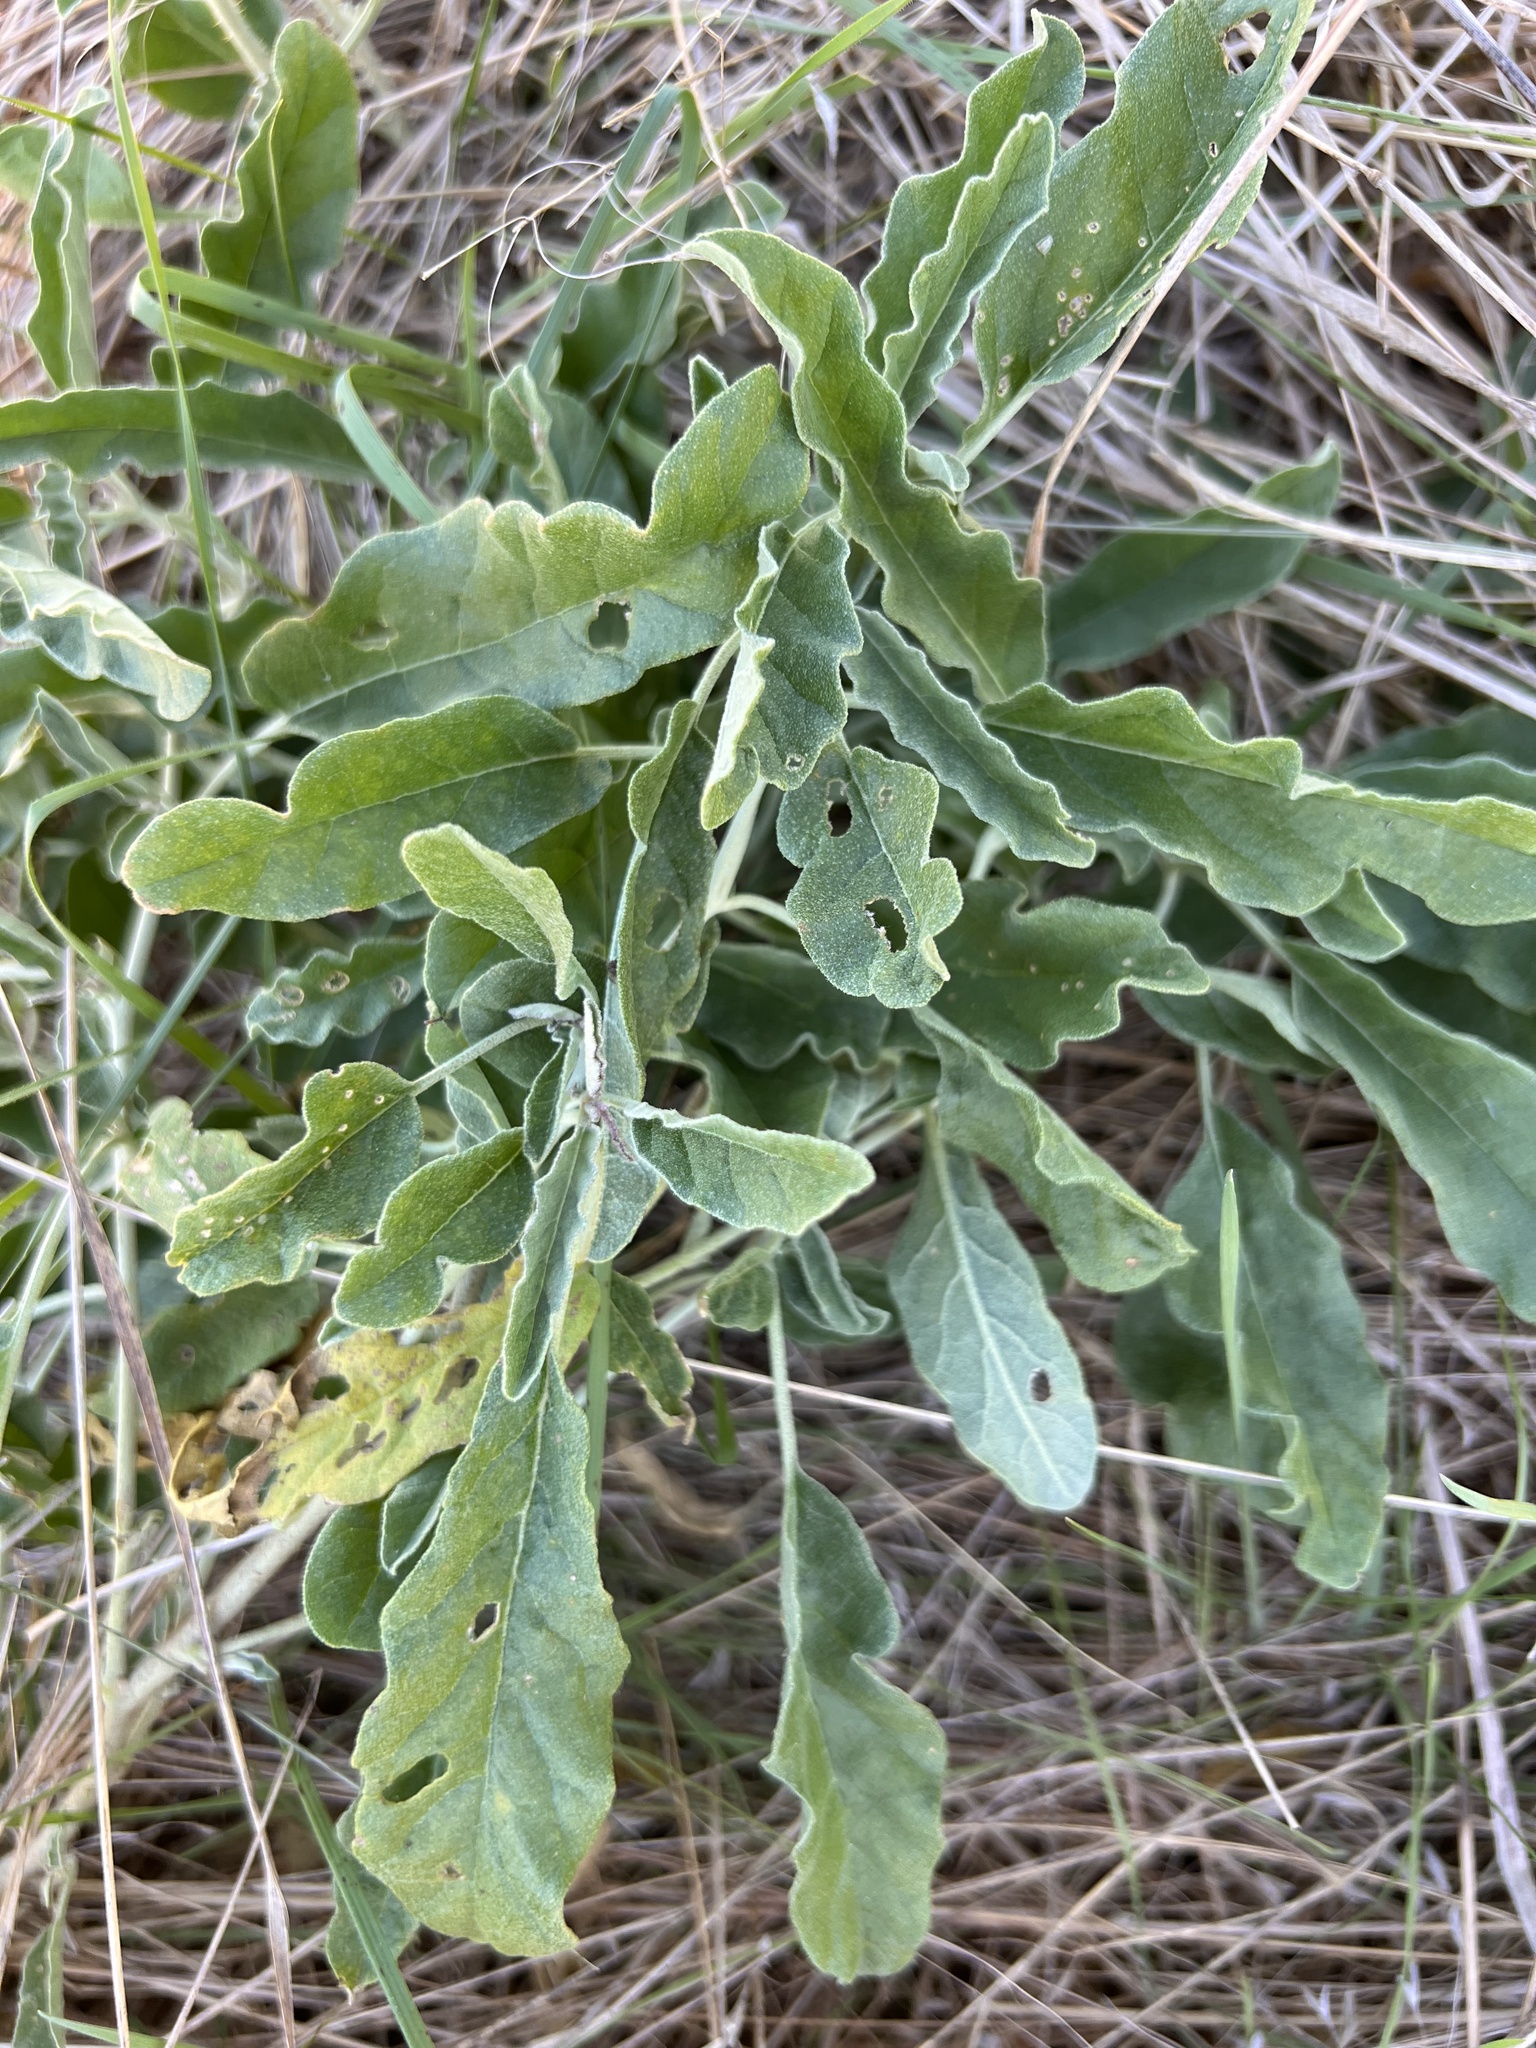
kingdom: Plantae
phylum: Tracheophyta
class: Magnoliopsida
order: Solanales
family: Solanaceae
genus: Solanum
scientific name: Solanum elaeagnifolium
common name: Silverleaf nightshade
